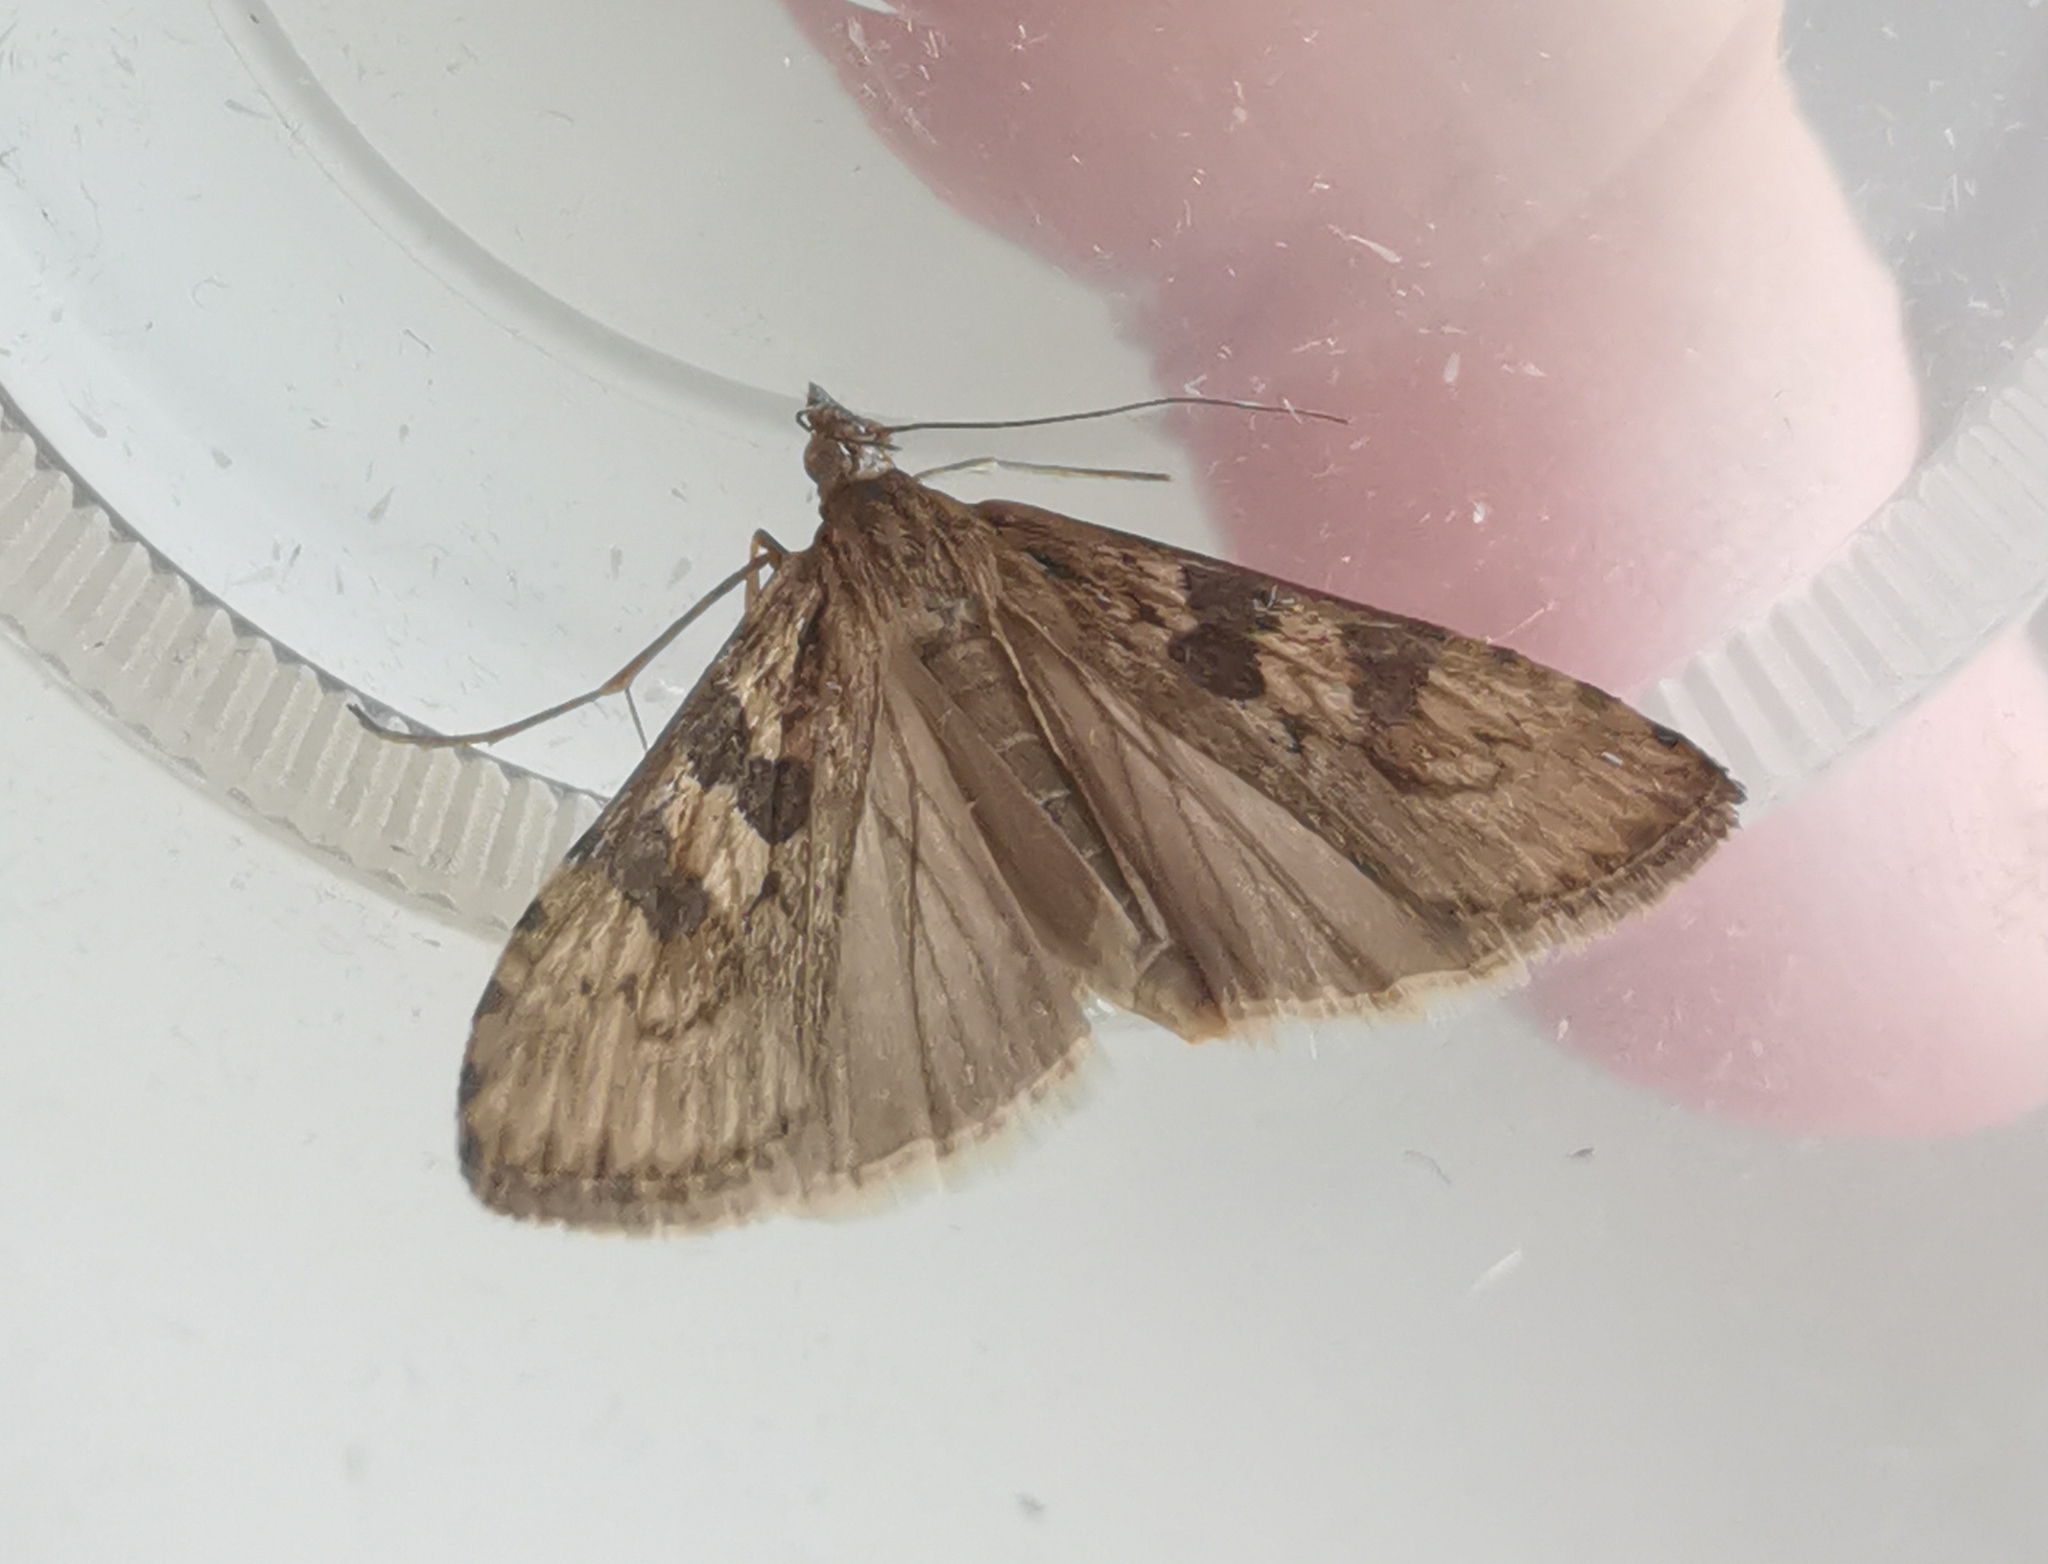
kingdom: Animalia
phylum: Arthropoda
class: Insecta
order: Lepidoptera
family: Crambidae
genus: Nomophila
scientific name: Nomophila noctuella
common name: Rush veneer
